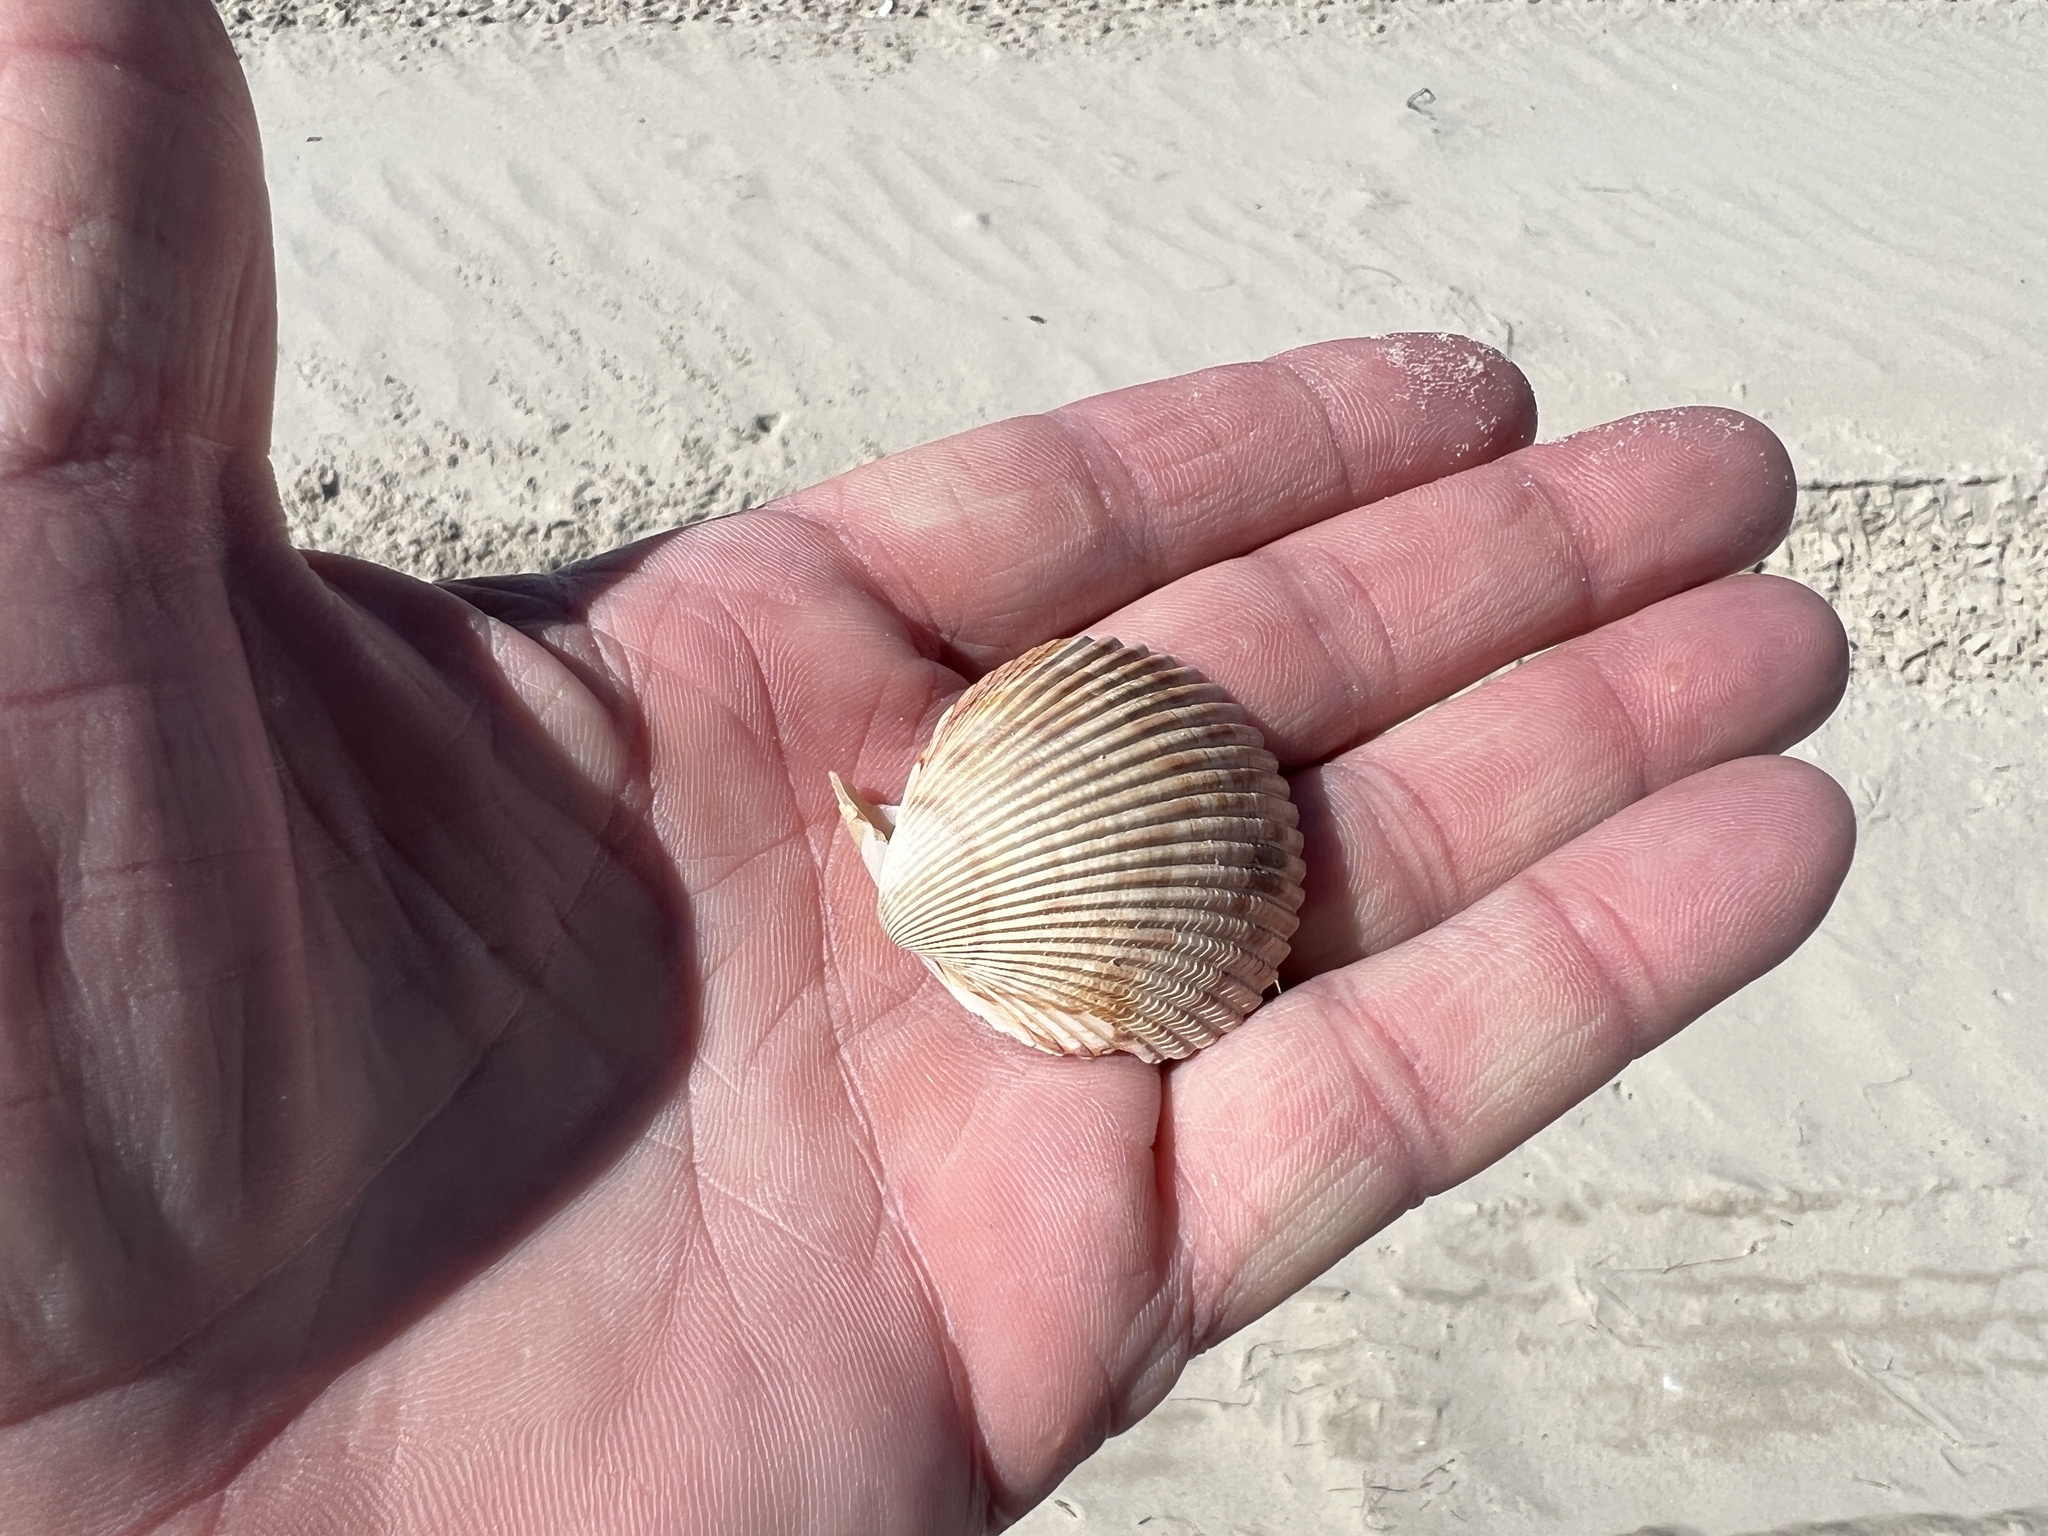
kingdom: Animalia
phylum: Mollusca
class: Bivalvia
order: Cardiida
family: Cardiidae
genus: Dinocardium
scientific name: Dinocardium robustum
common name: Atlantic giant cockle
